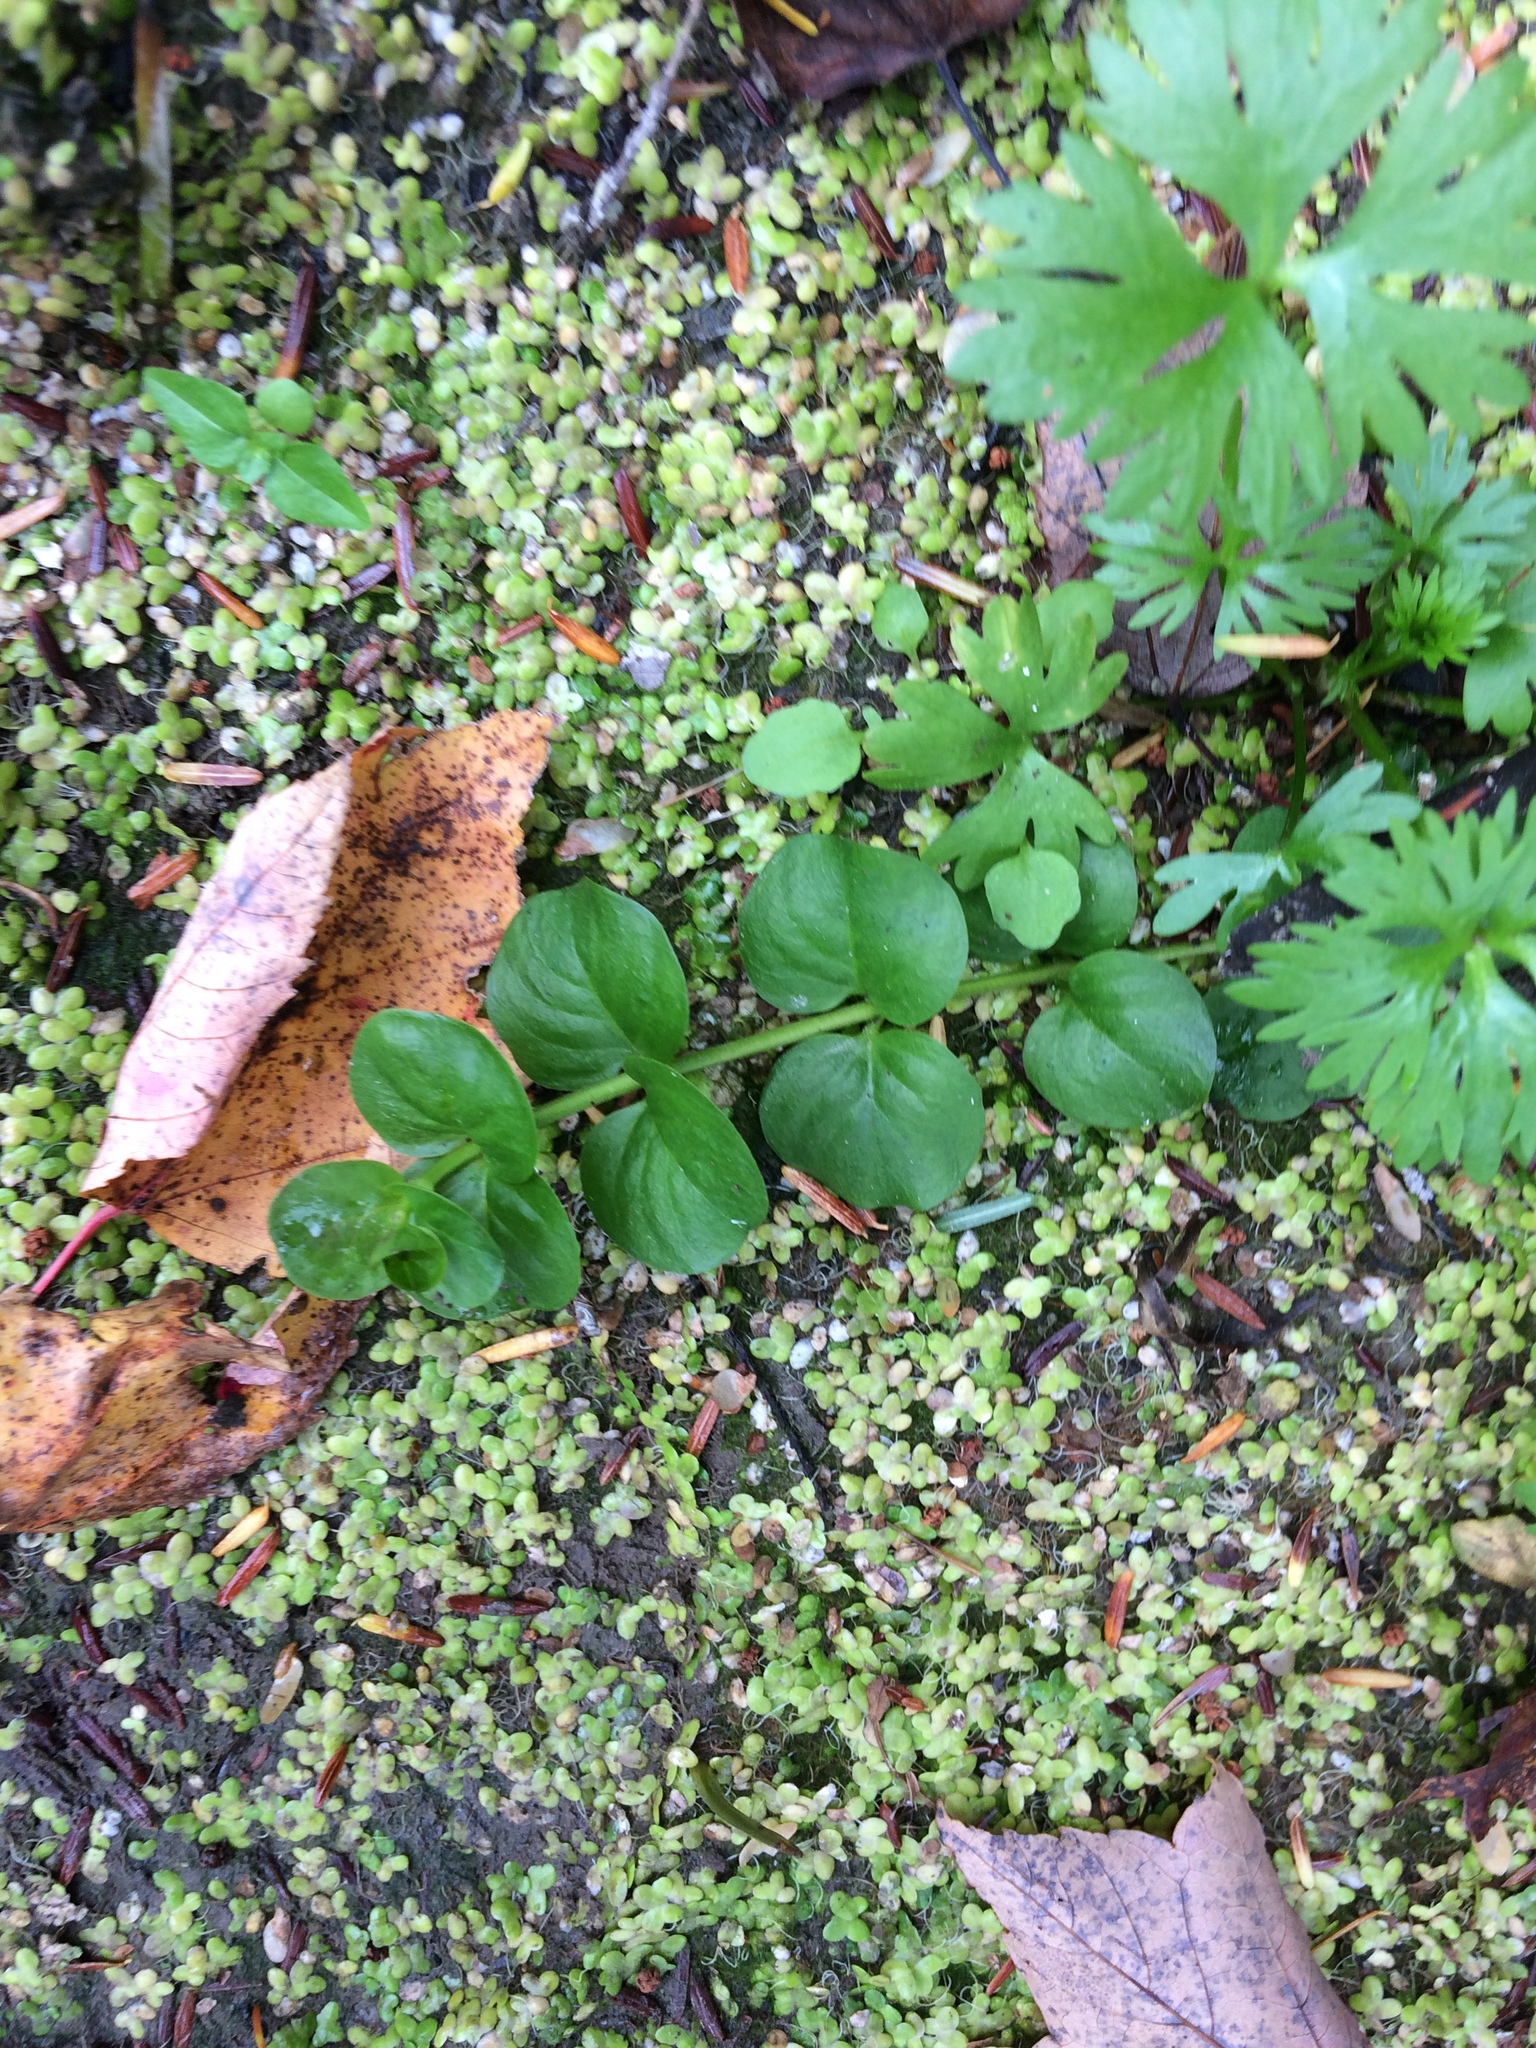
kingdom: Plantae
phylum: Tracheophyta
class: Magnoliopsida
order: Ericales
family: Primulaceae
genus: Lysimachia
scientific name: Lysimachia nummularia
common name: Moneywort
